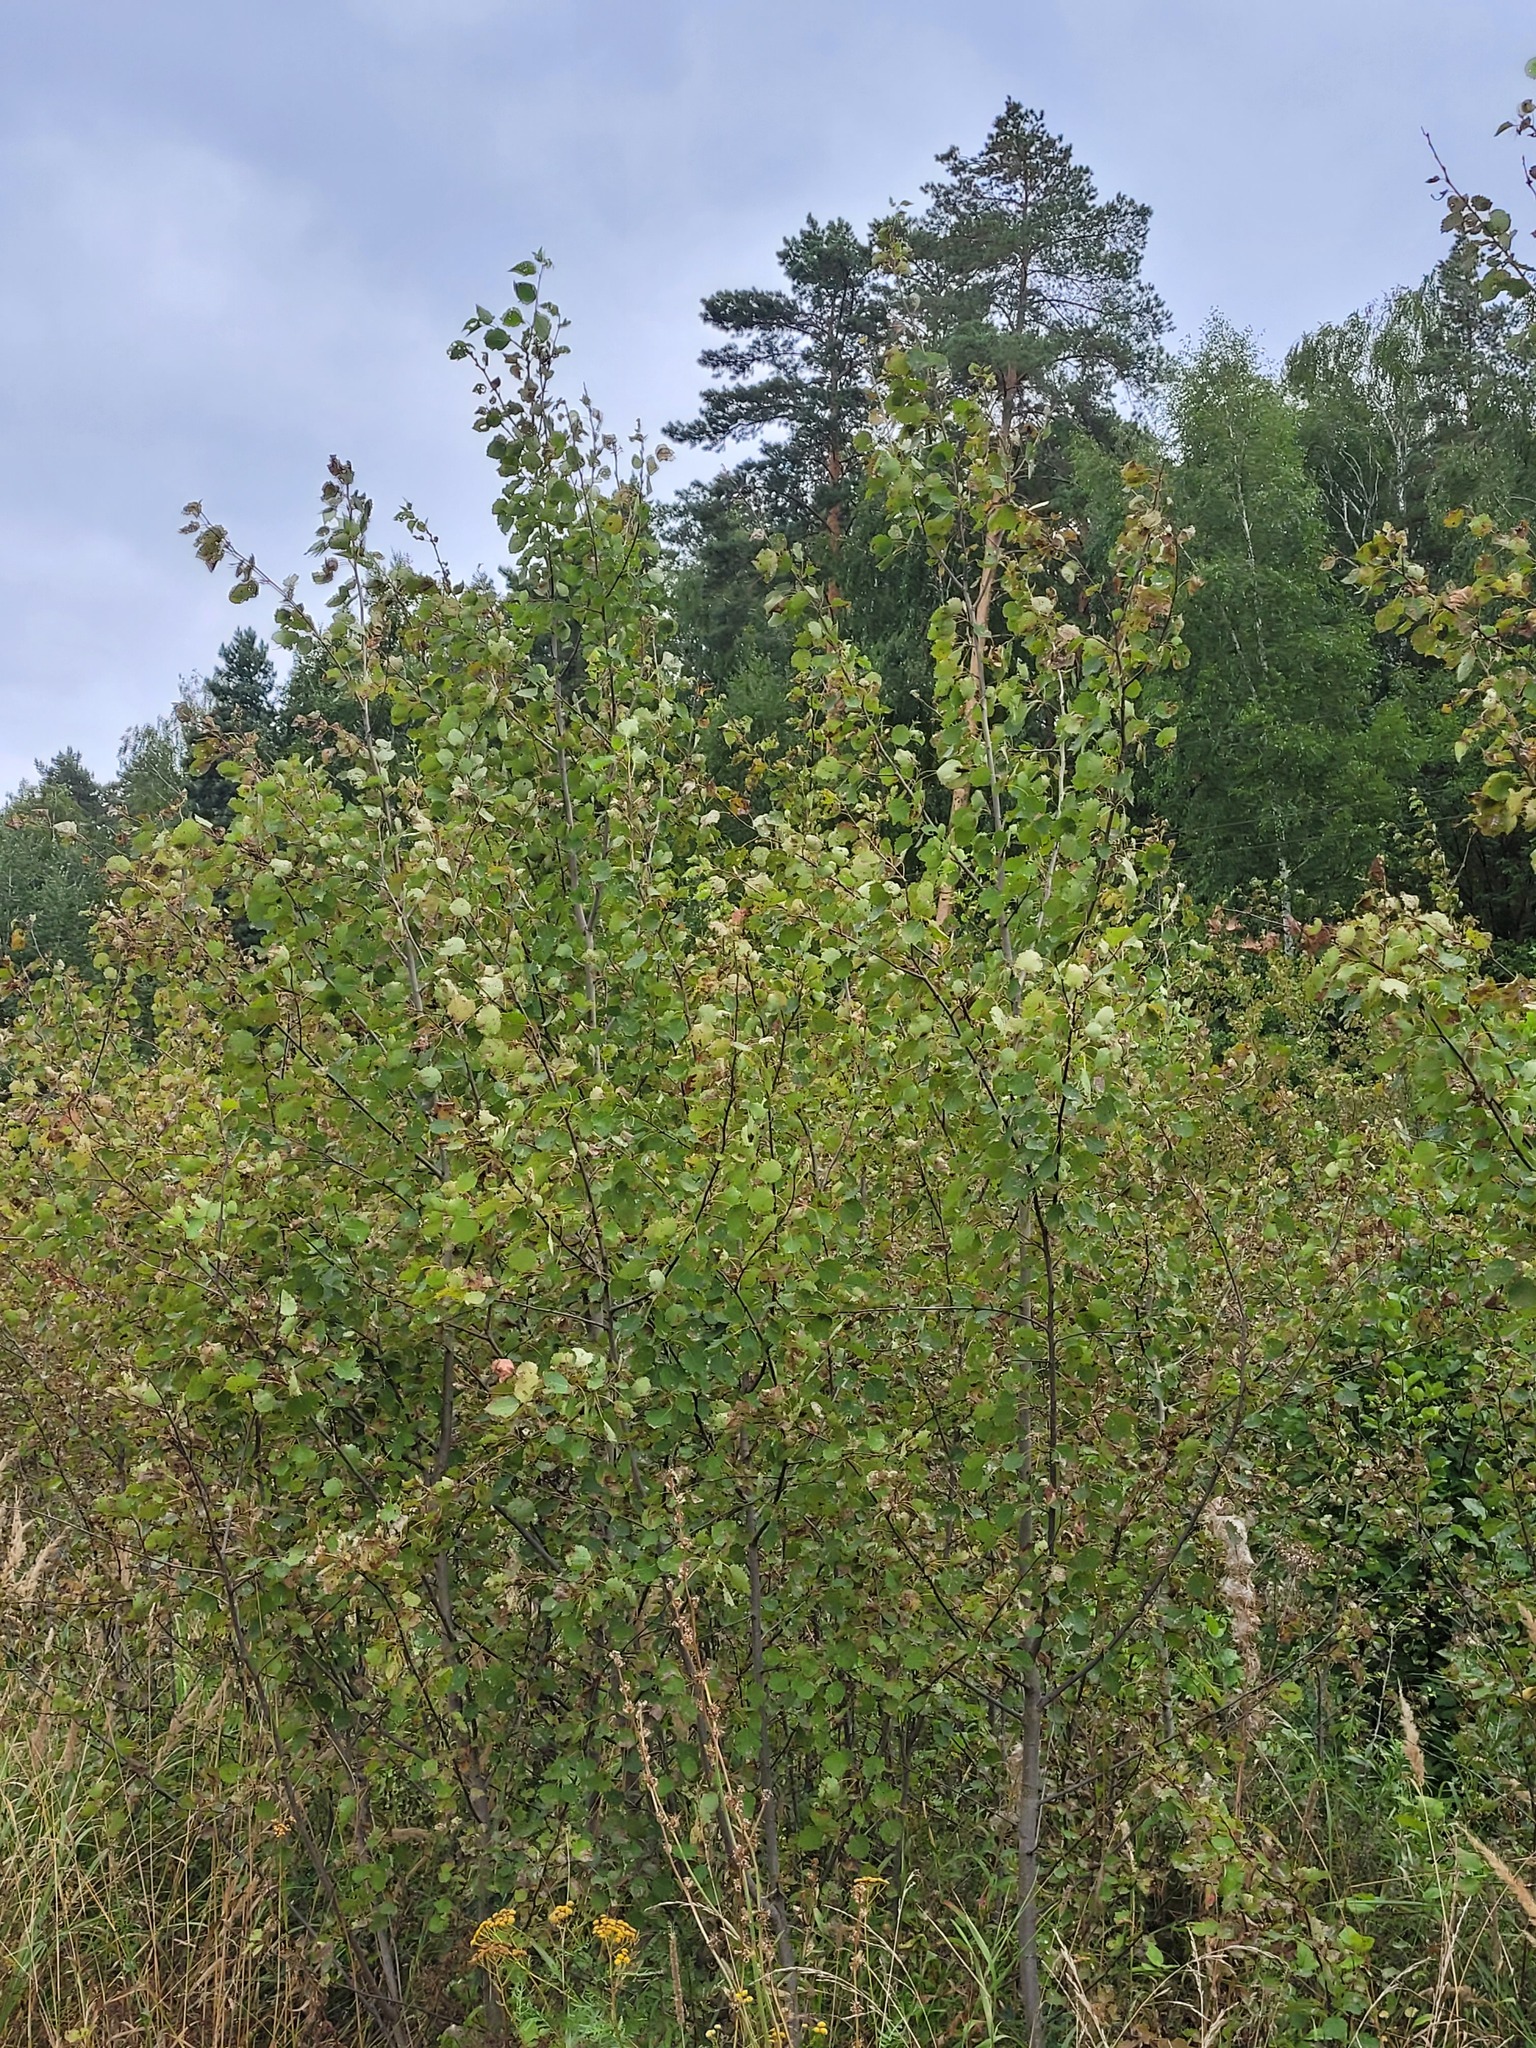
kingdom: Plantae
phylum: Tracheophyta
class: Magnoliopsida
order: Malpighiales
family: Salicaceae
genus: Populus
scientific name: Populus tremula
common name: European aspen
